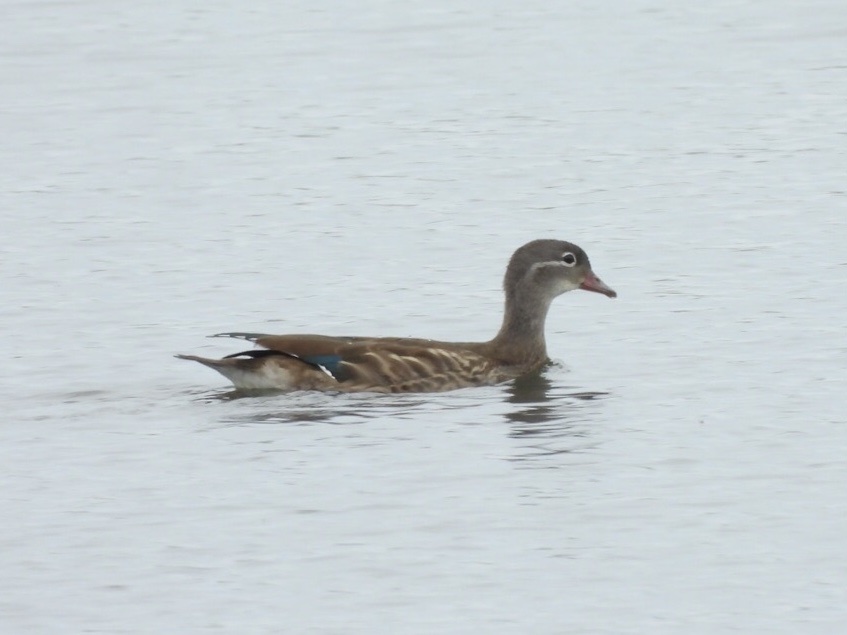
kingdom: Animalia
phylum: Chordata
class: Aves
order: Anseriformes
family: Anatidae
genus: Aix
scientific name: Aix galericulata
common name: Mandarin duck
